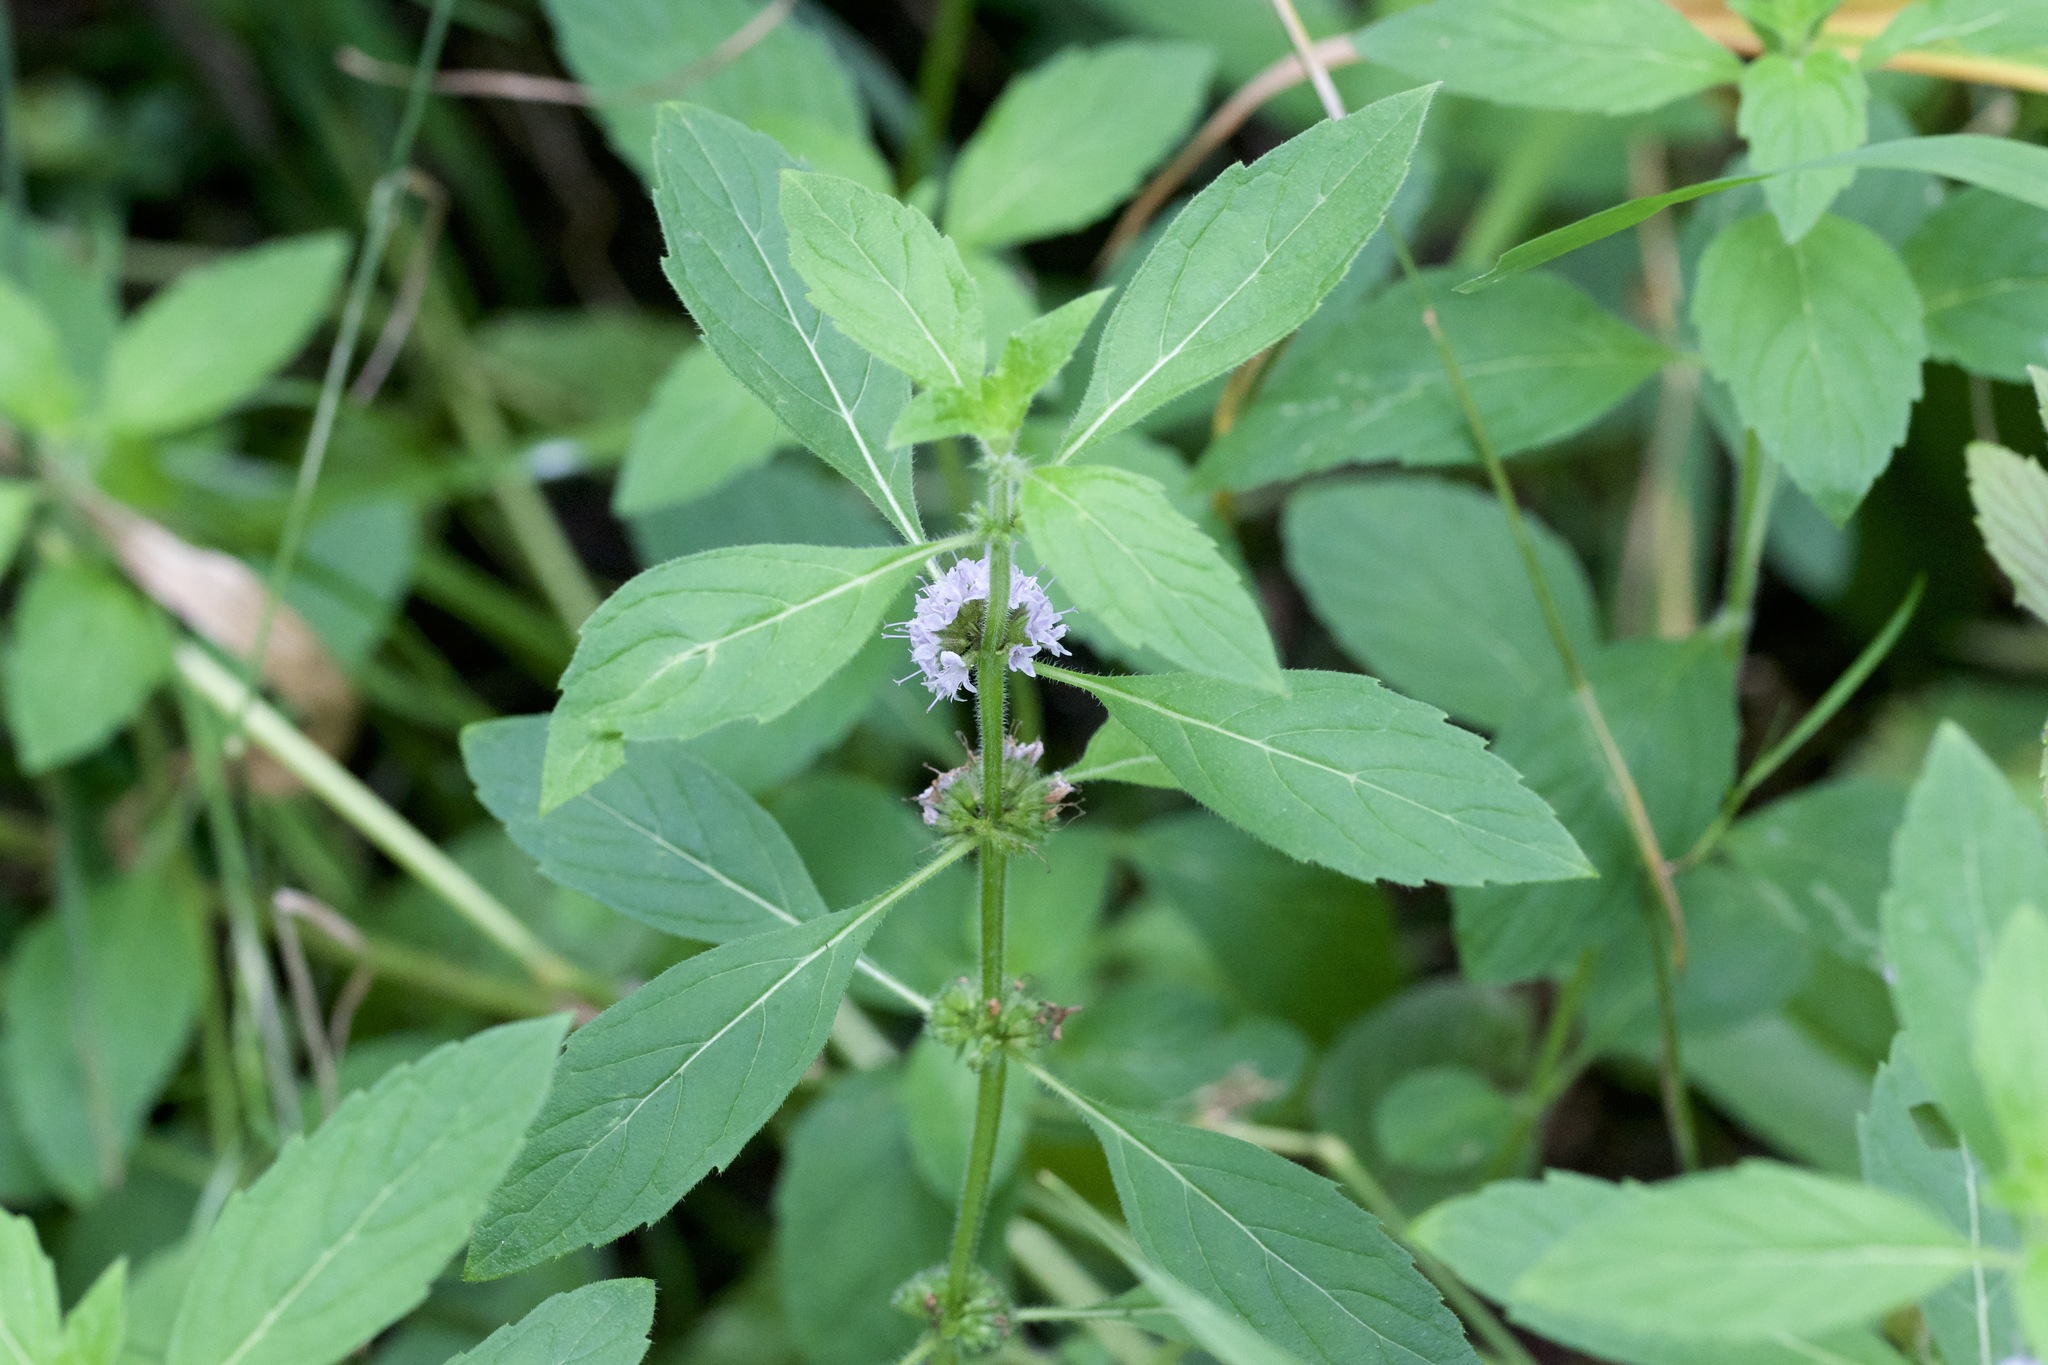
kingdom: Plantae
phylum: Tracheophyta
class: Magnoliopsida
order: Lamiales
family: Lamiaceae
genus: Mentha
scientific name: Mentha canadensis
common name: American corn mint
